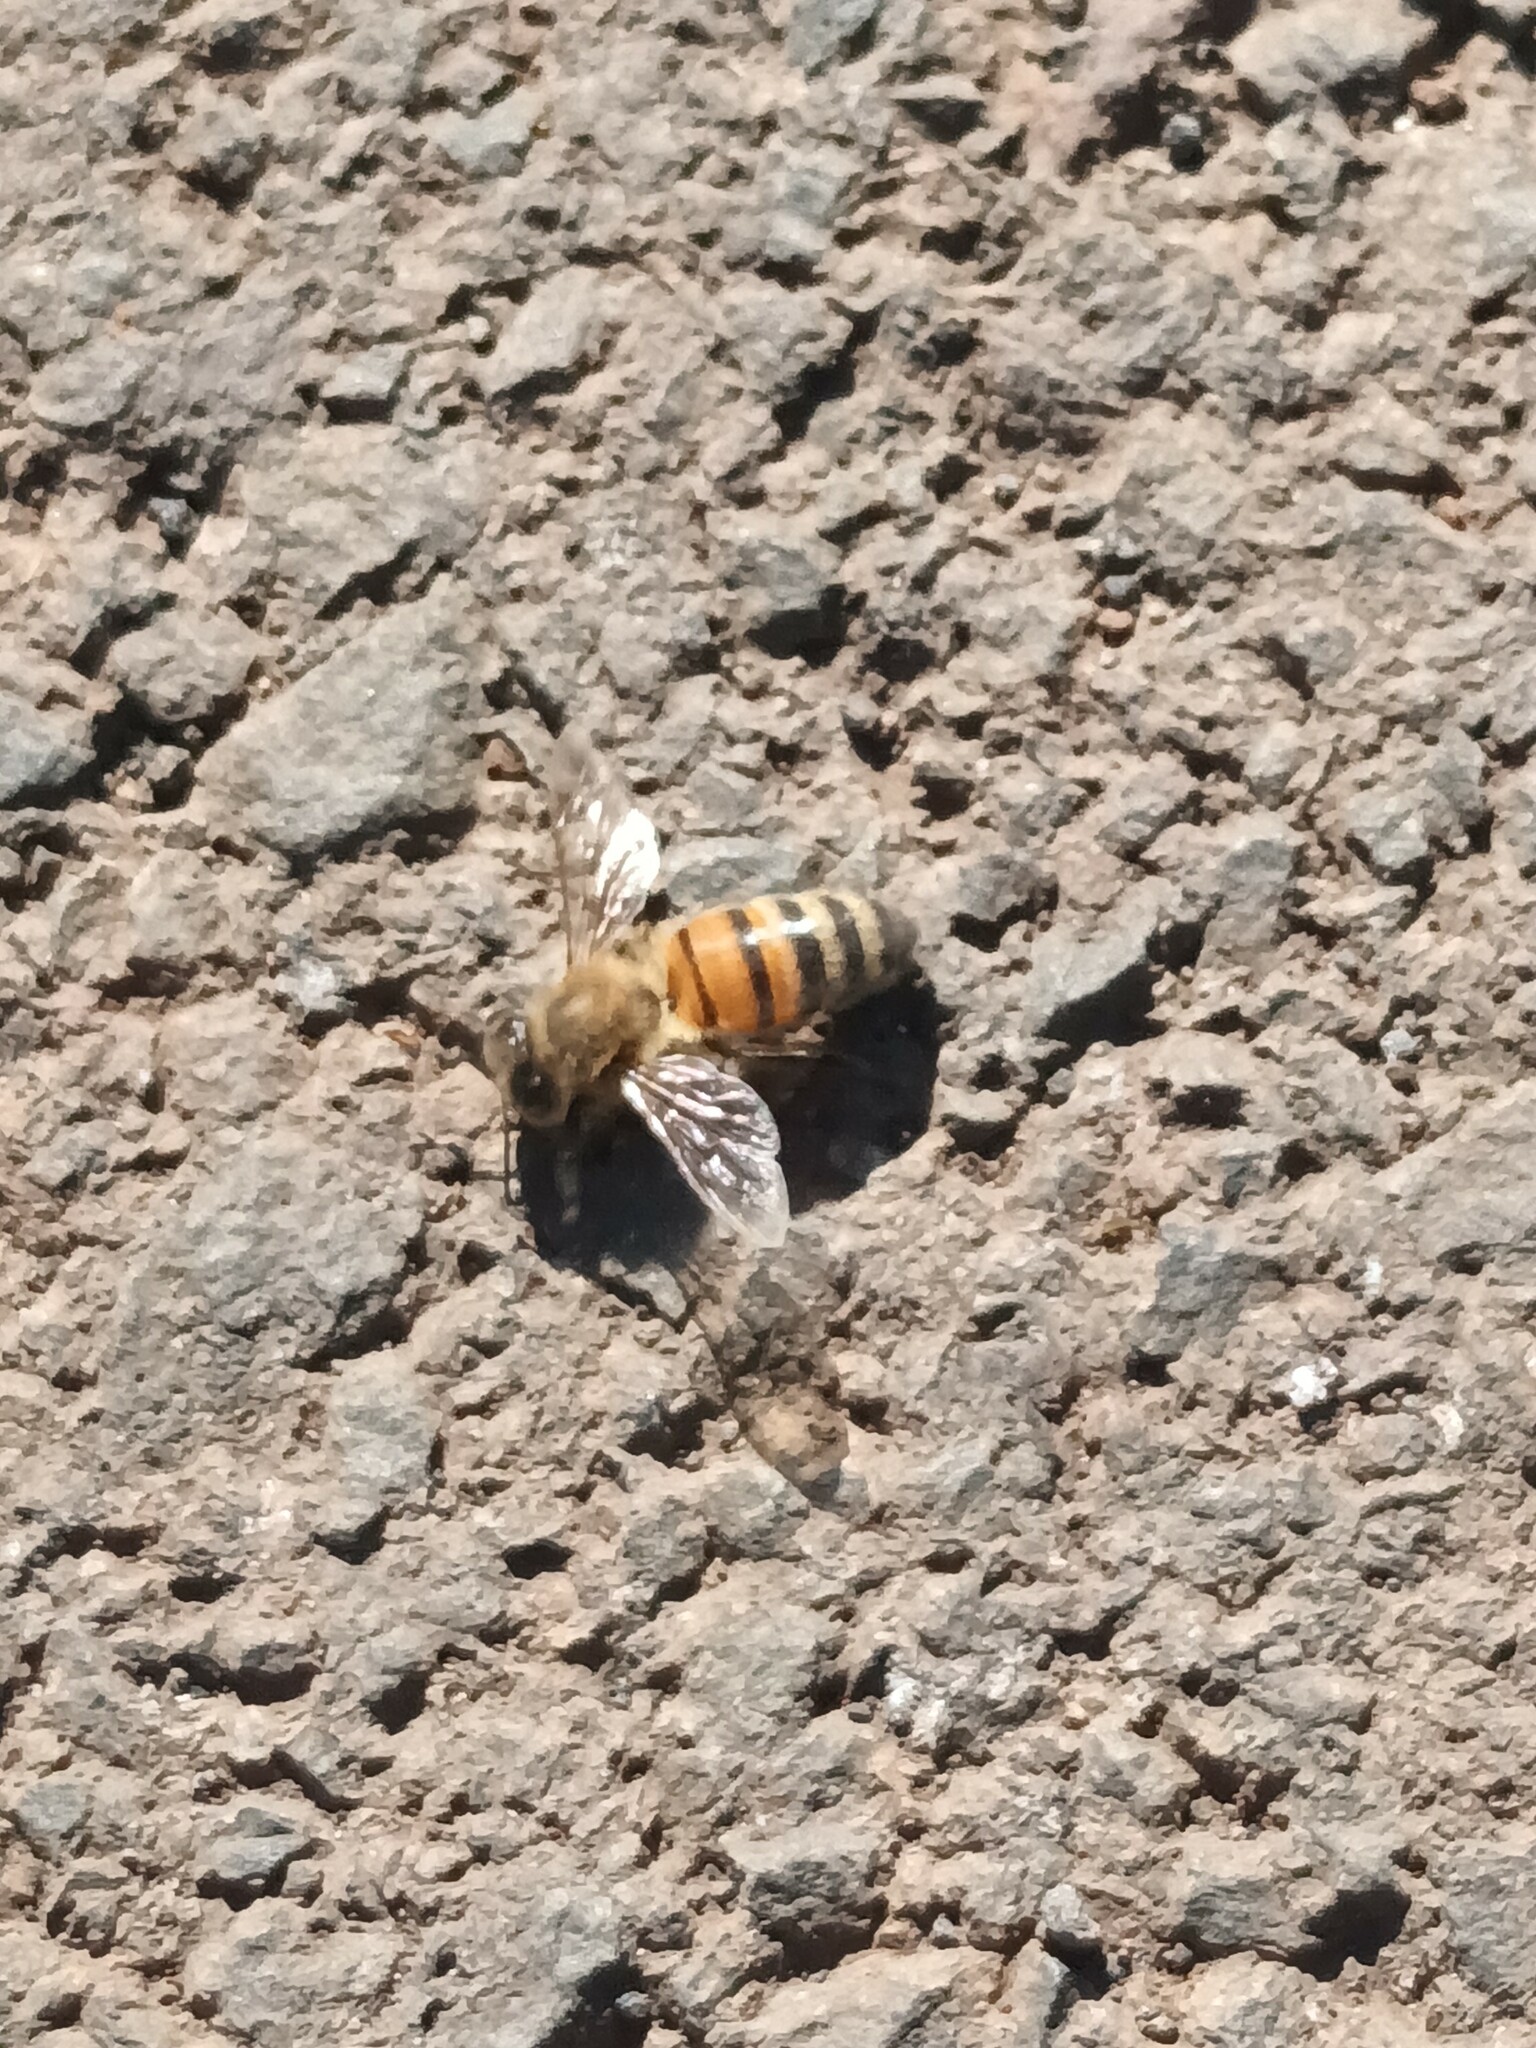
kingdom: Animalia
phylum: Arthropoda
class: Insecta
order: Hymenoptera
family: Apidae
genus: Apis
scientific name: Apis mellifera
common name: Honey bee
